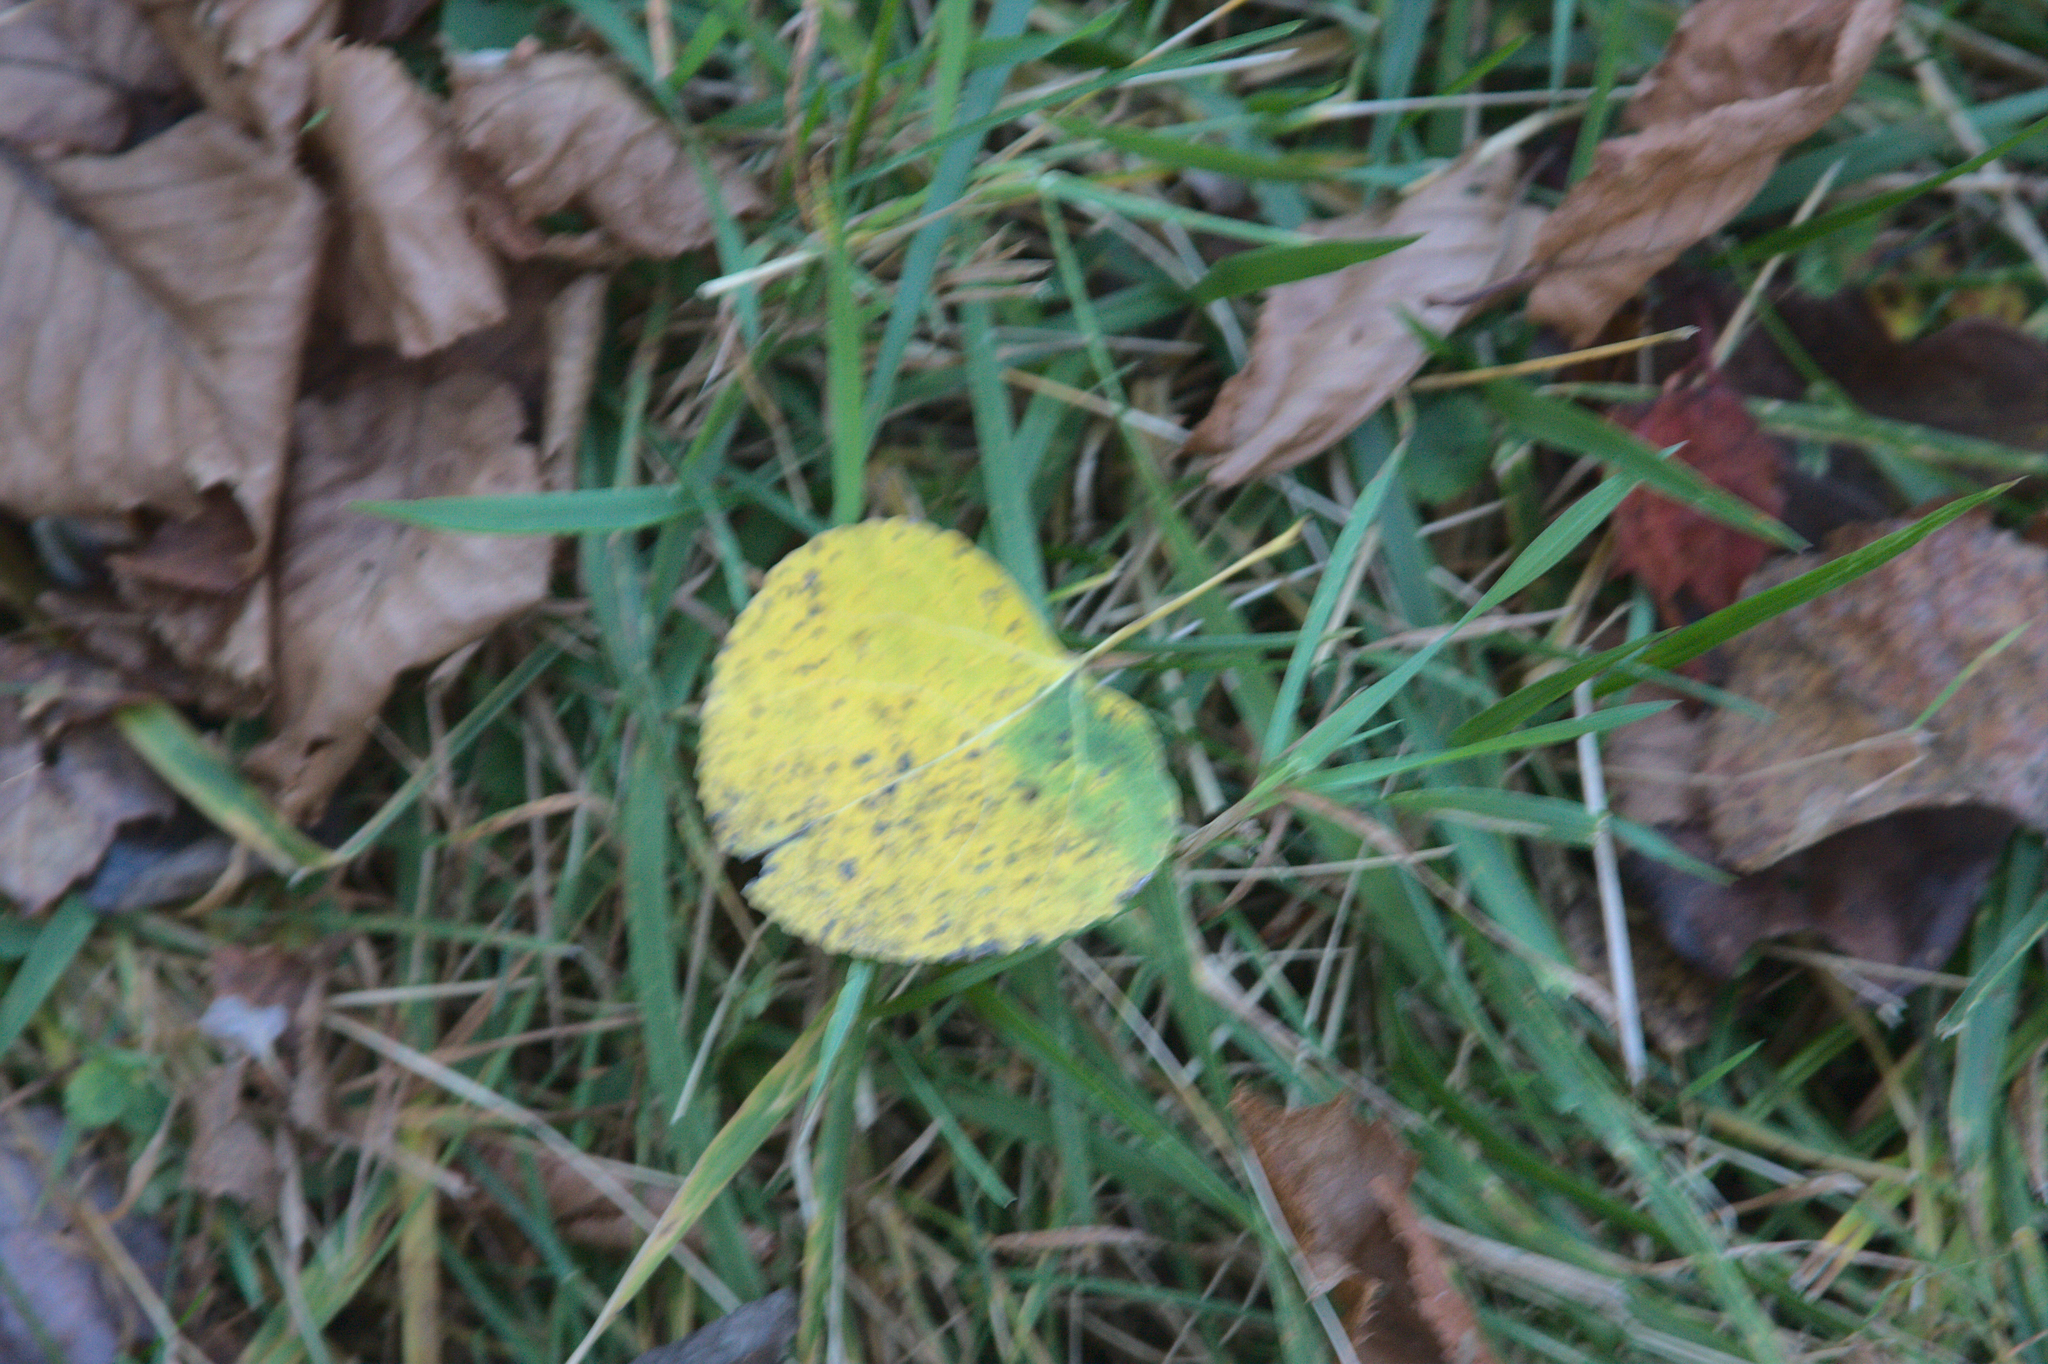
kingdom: Plantae
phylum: Tracheophyta
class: Magnoliopsida
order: Malpighiales
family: Salicaceae
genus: Populus
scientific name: Populus tremuloides
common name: Quaking aspen
